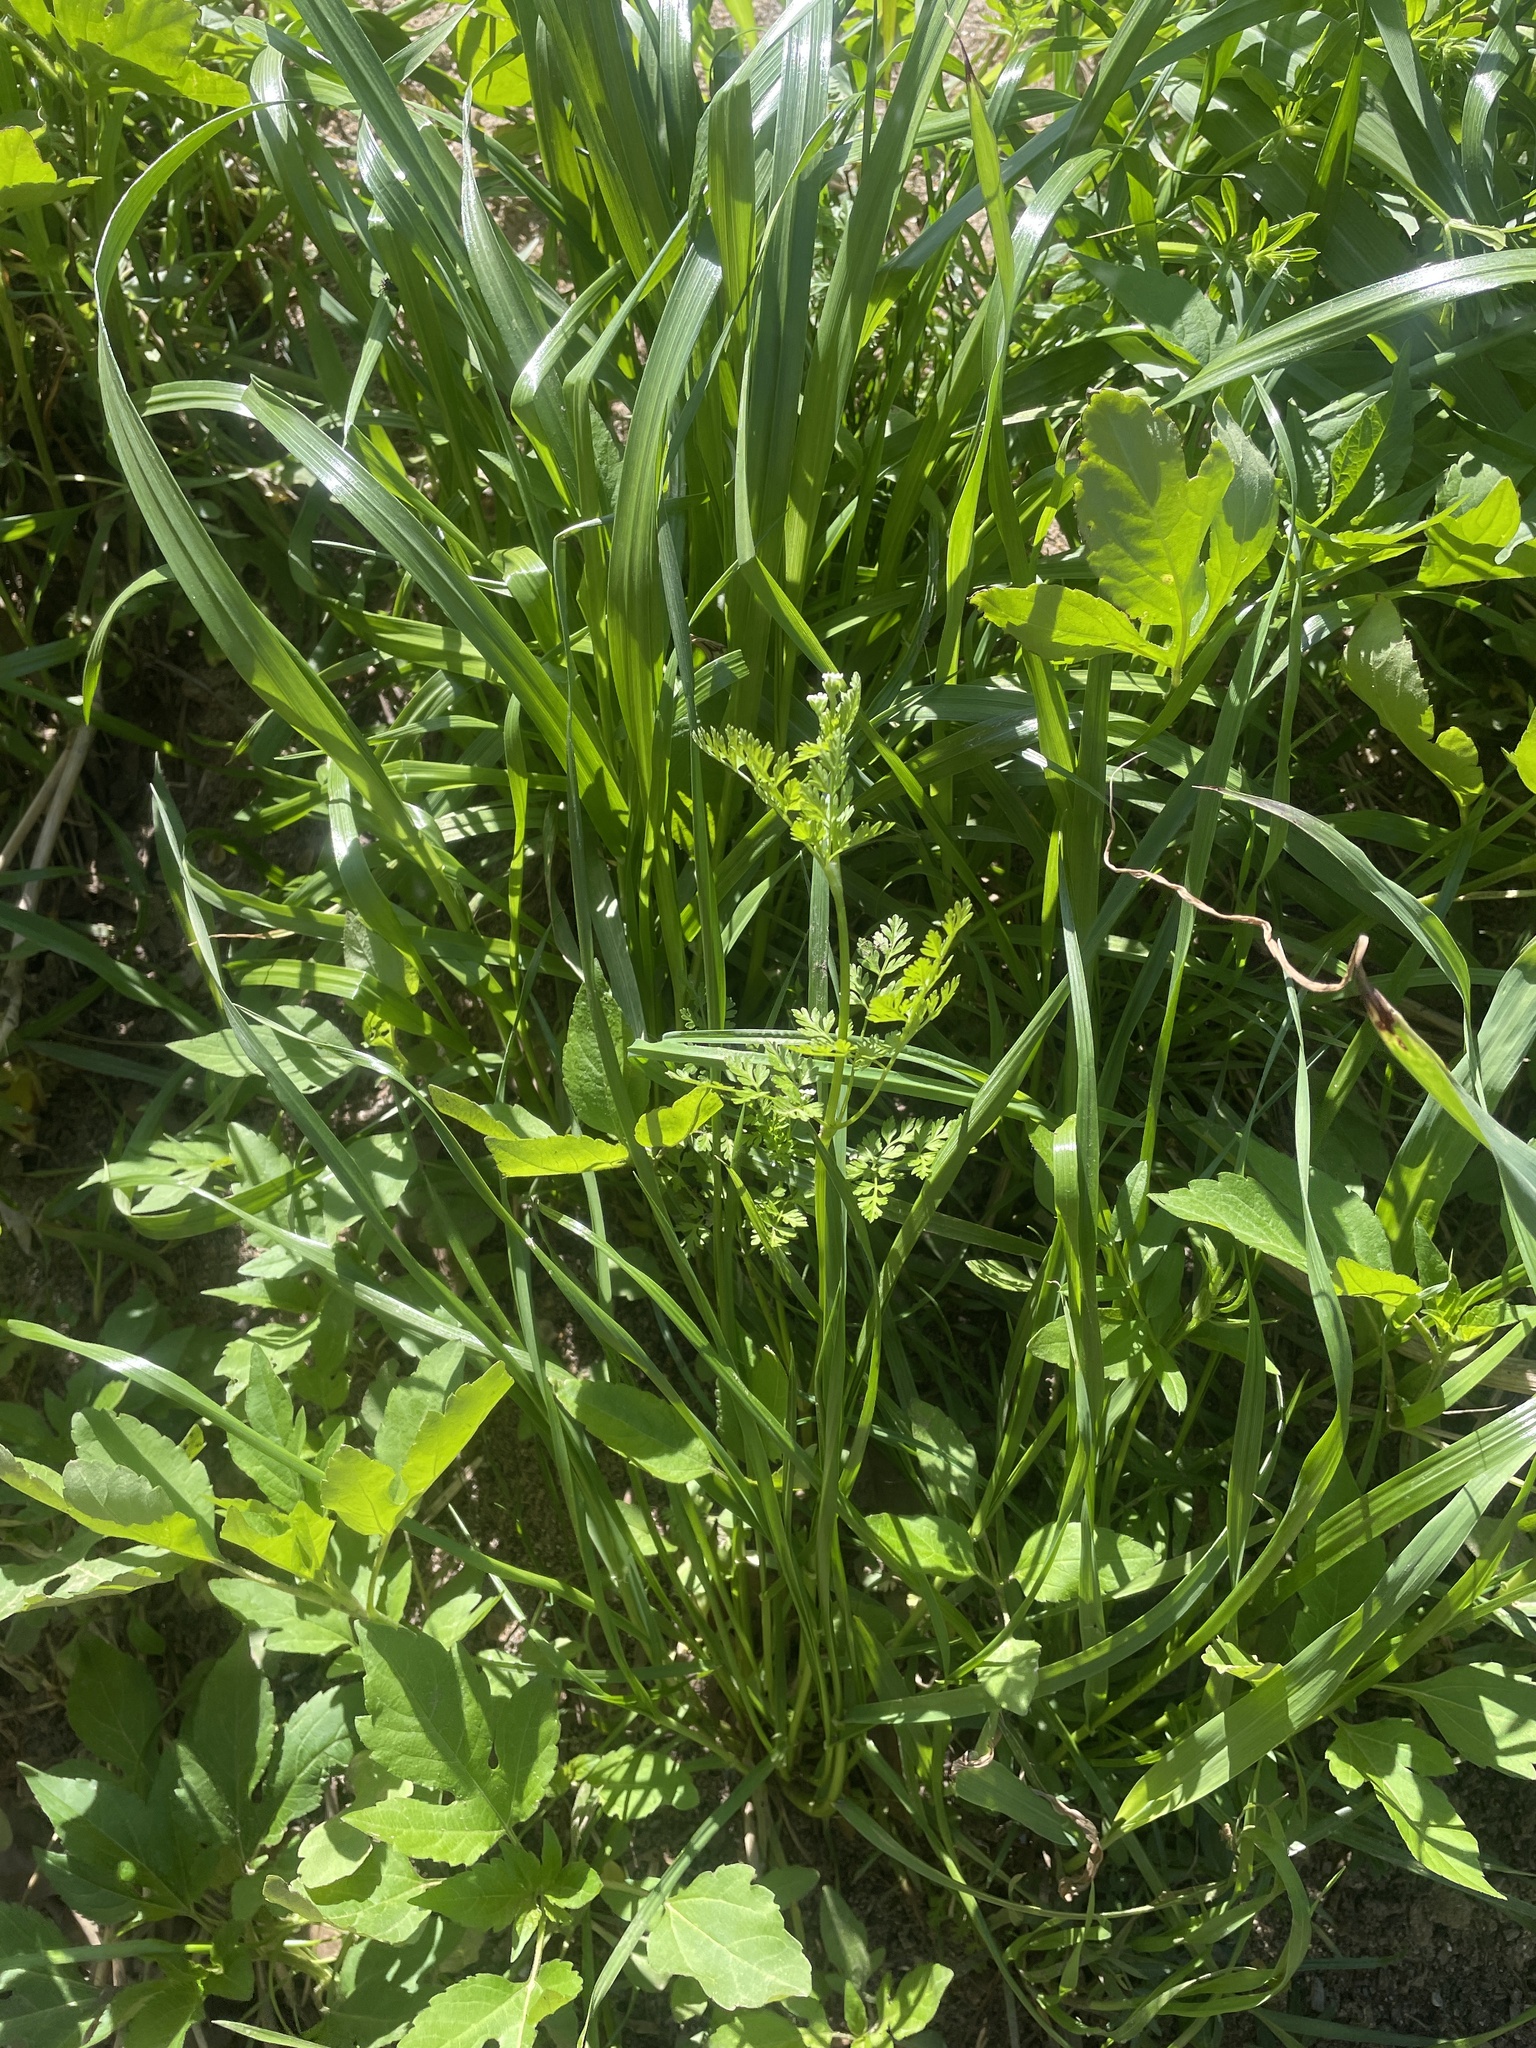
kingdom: Plantae
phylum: Tracheophyta
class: Magnoliopsida
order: Apiales
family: Apiaceae
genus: Chaerophyllum
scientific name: Chaerophyllum tainturieri
